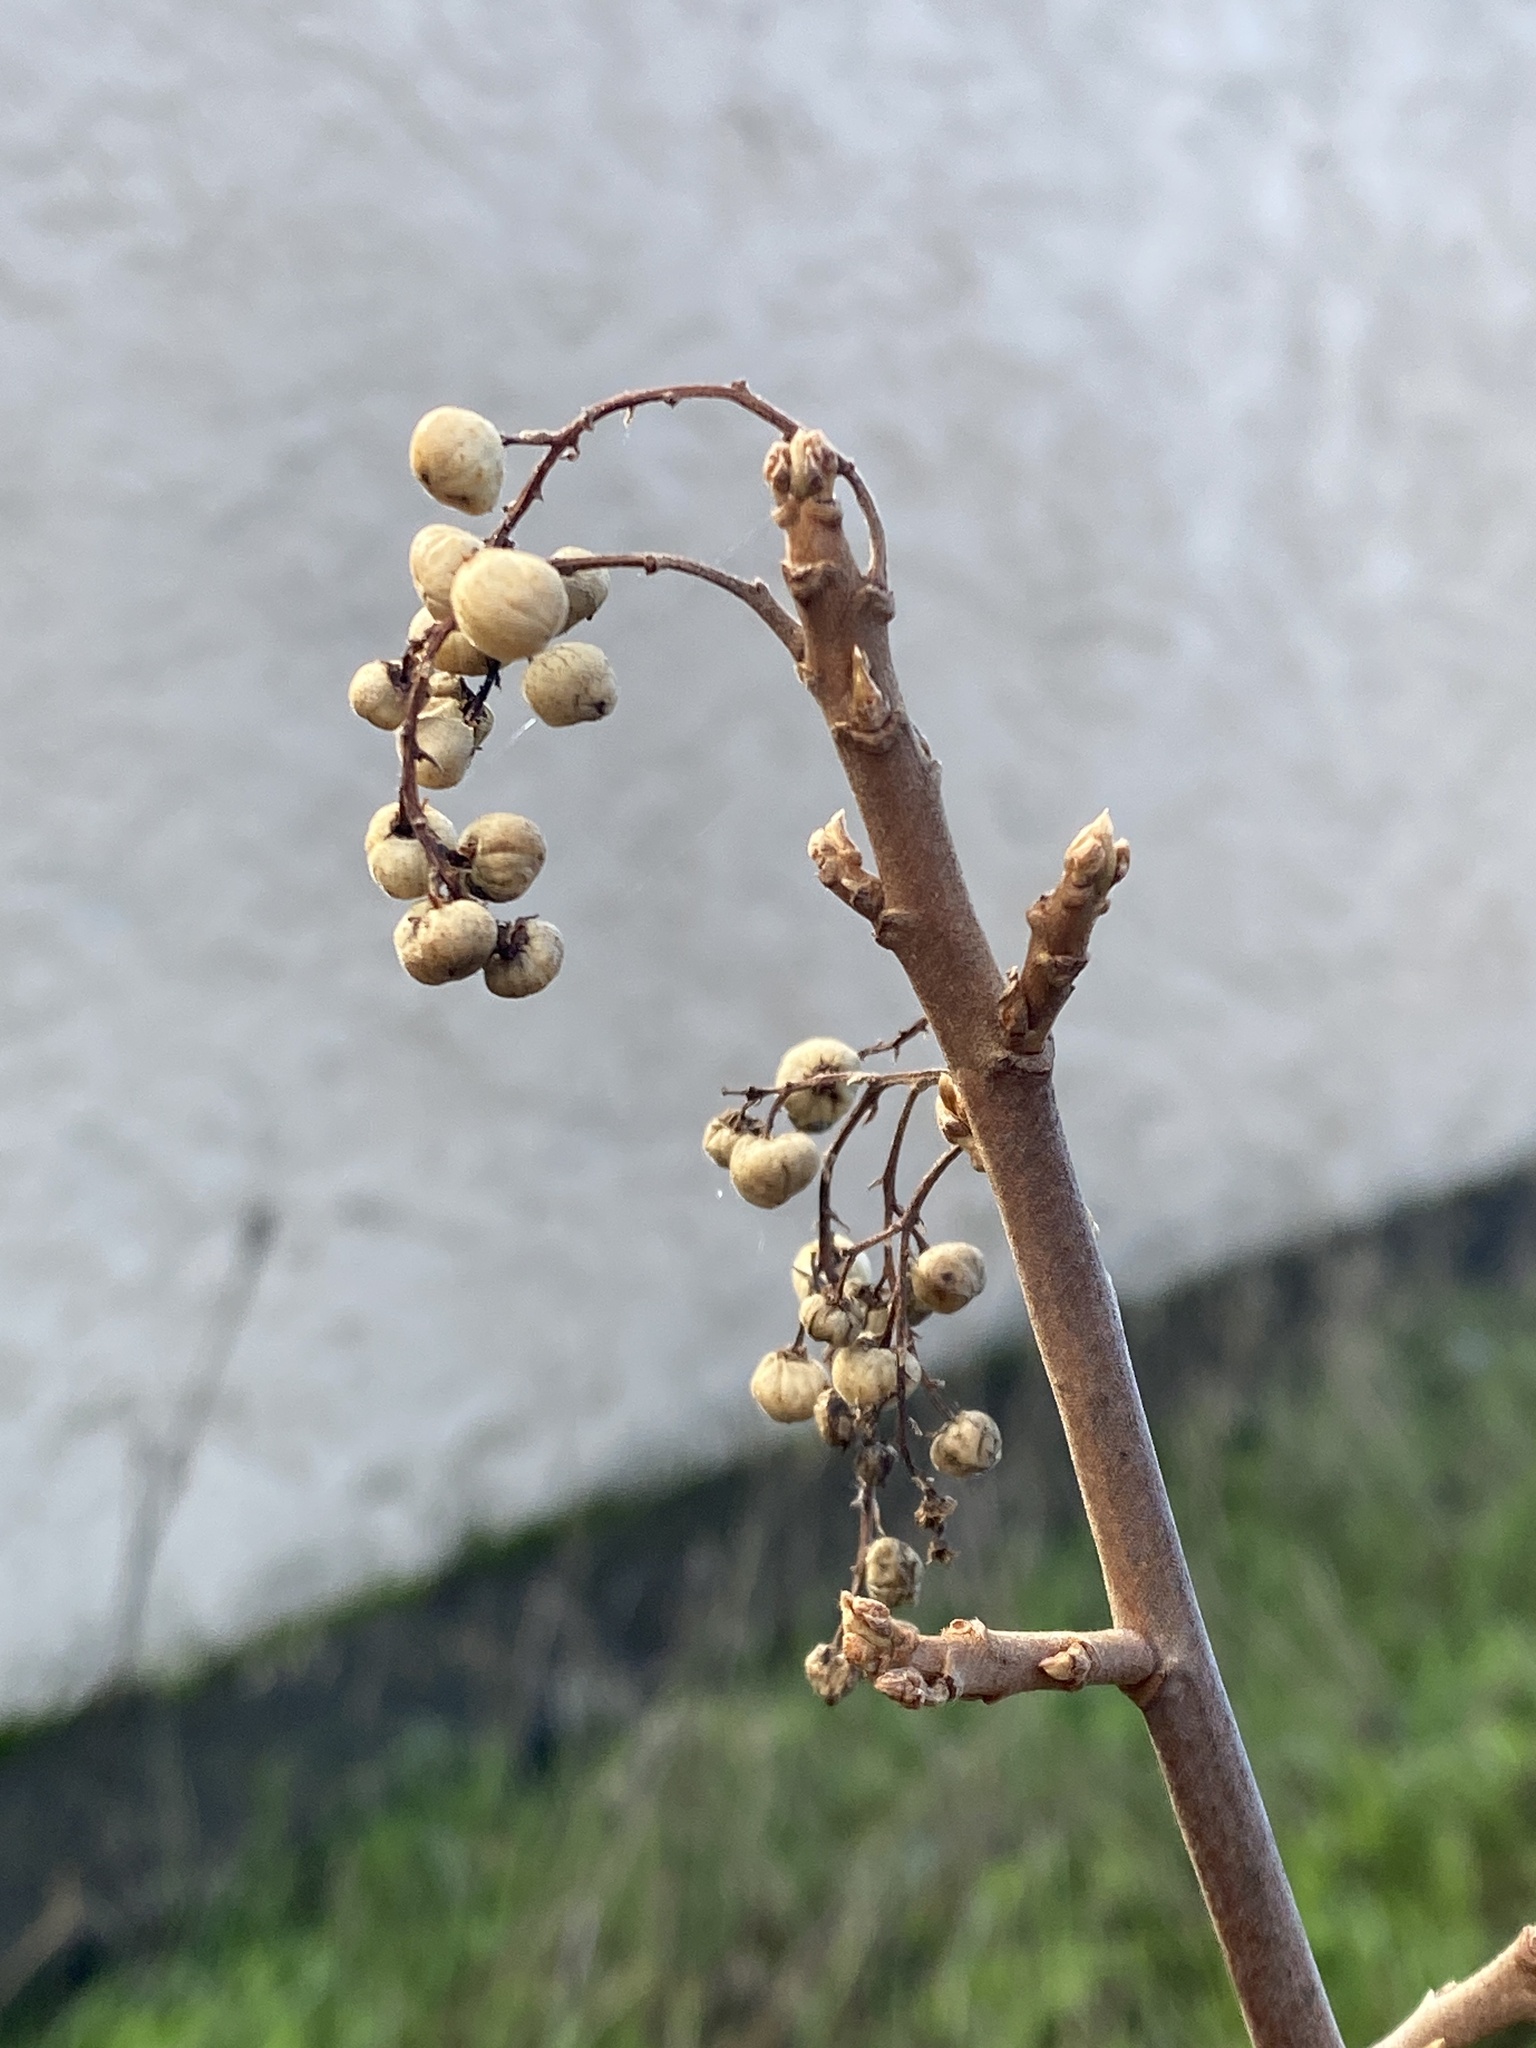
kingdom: Plantae
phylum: Tracheophyta
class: Magnoliopsida
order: Sapindales
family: Anacardiaceae
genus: Toxicodendron
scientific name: Toxicodendron diversilobum
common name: Pacific poison-oak
